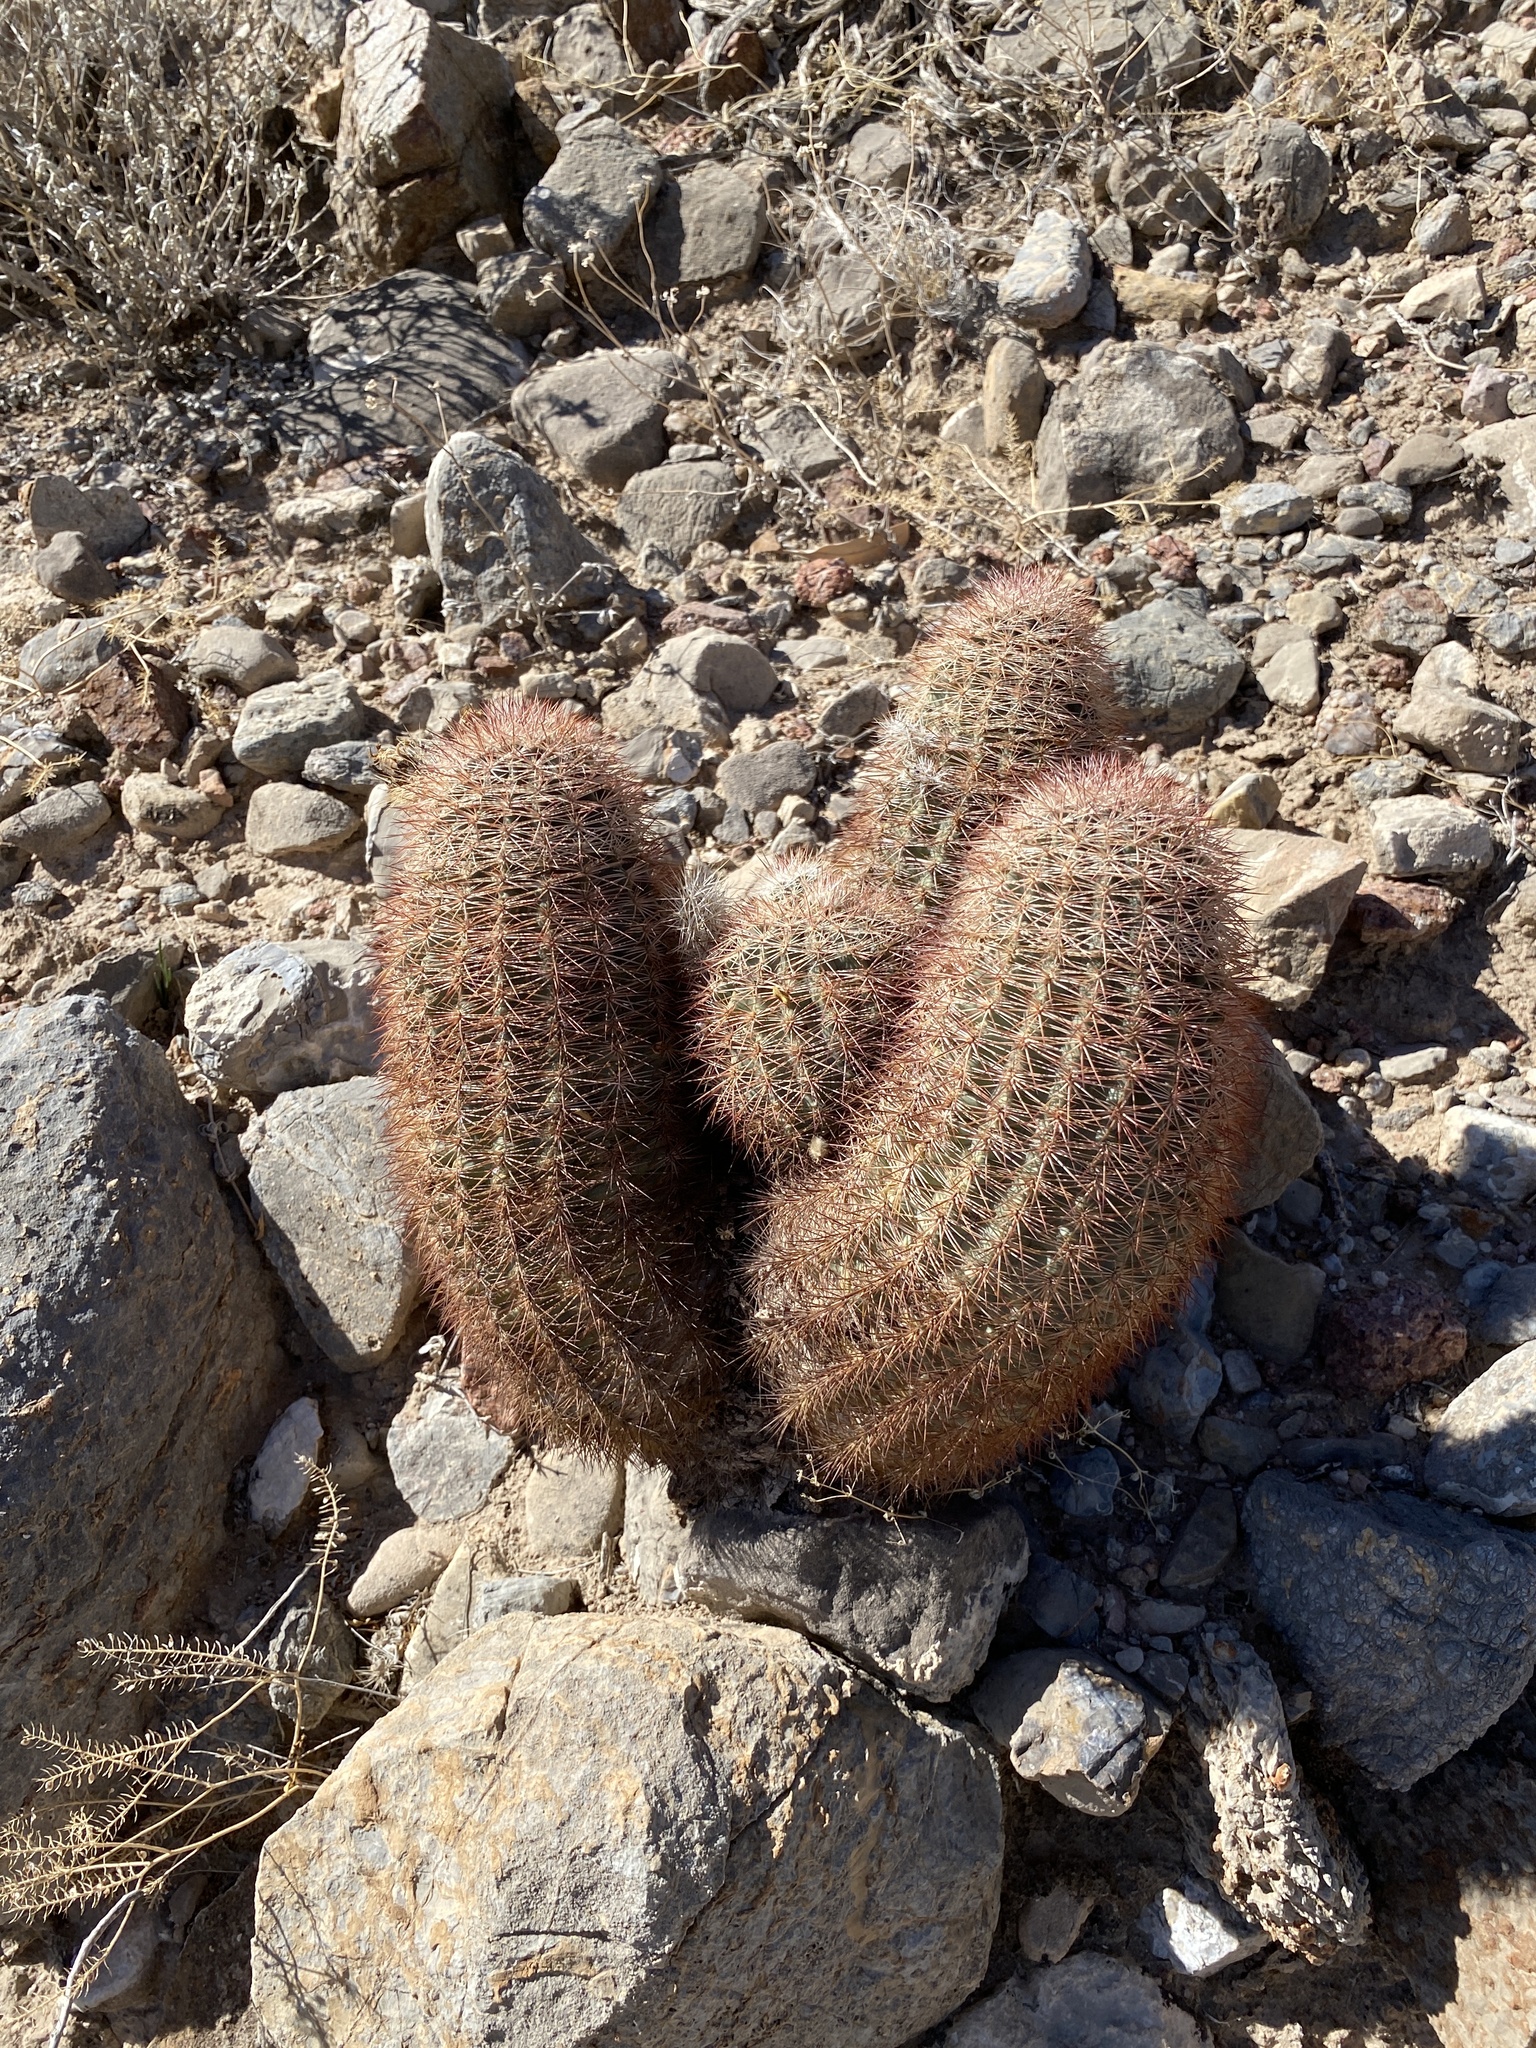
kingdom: Plantae
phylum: Tracheophyta
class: Magnoliopsida
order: Caryophyllales
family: Cactaceae
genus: Echinocereus
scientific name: Echinocereus dasyacanthus
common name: Spiny hedgehog cactus
